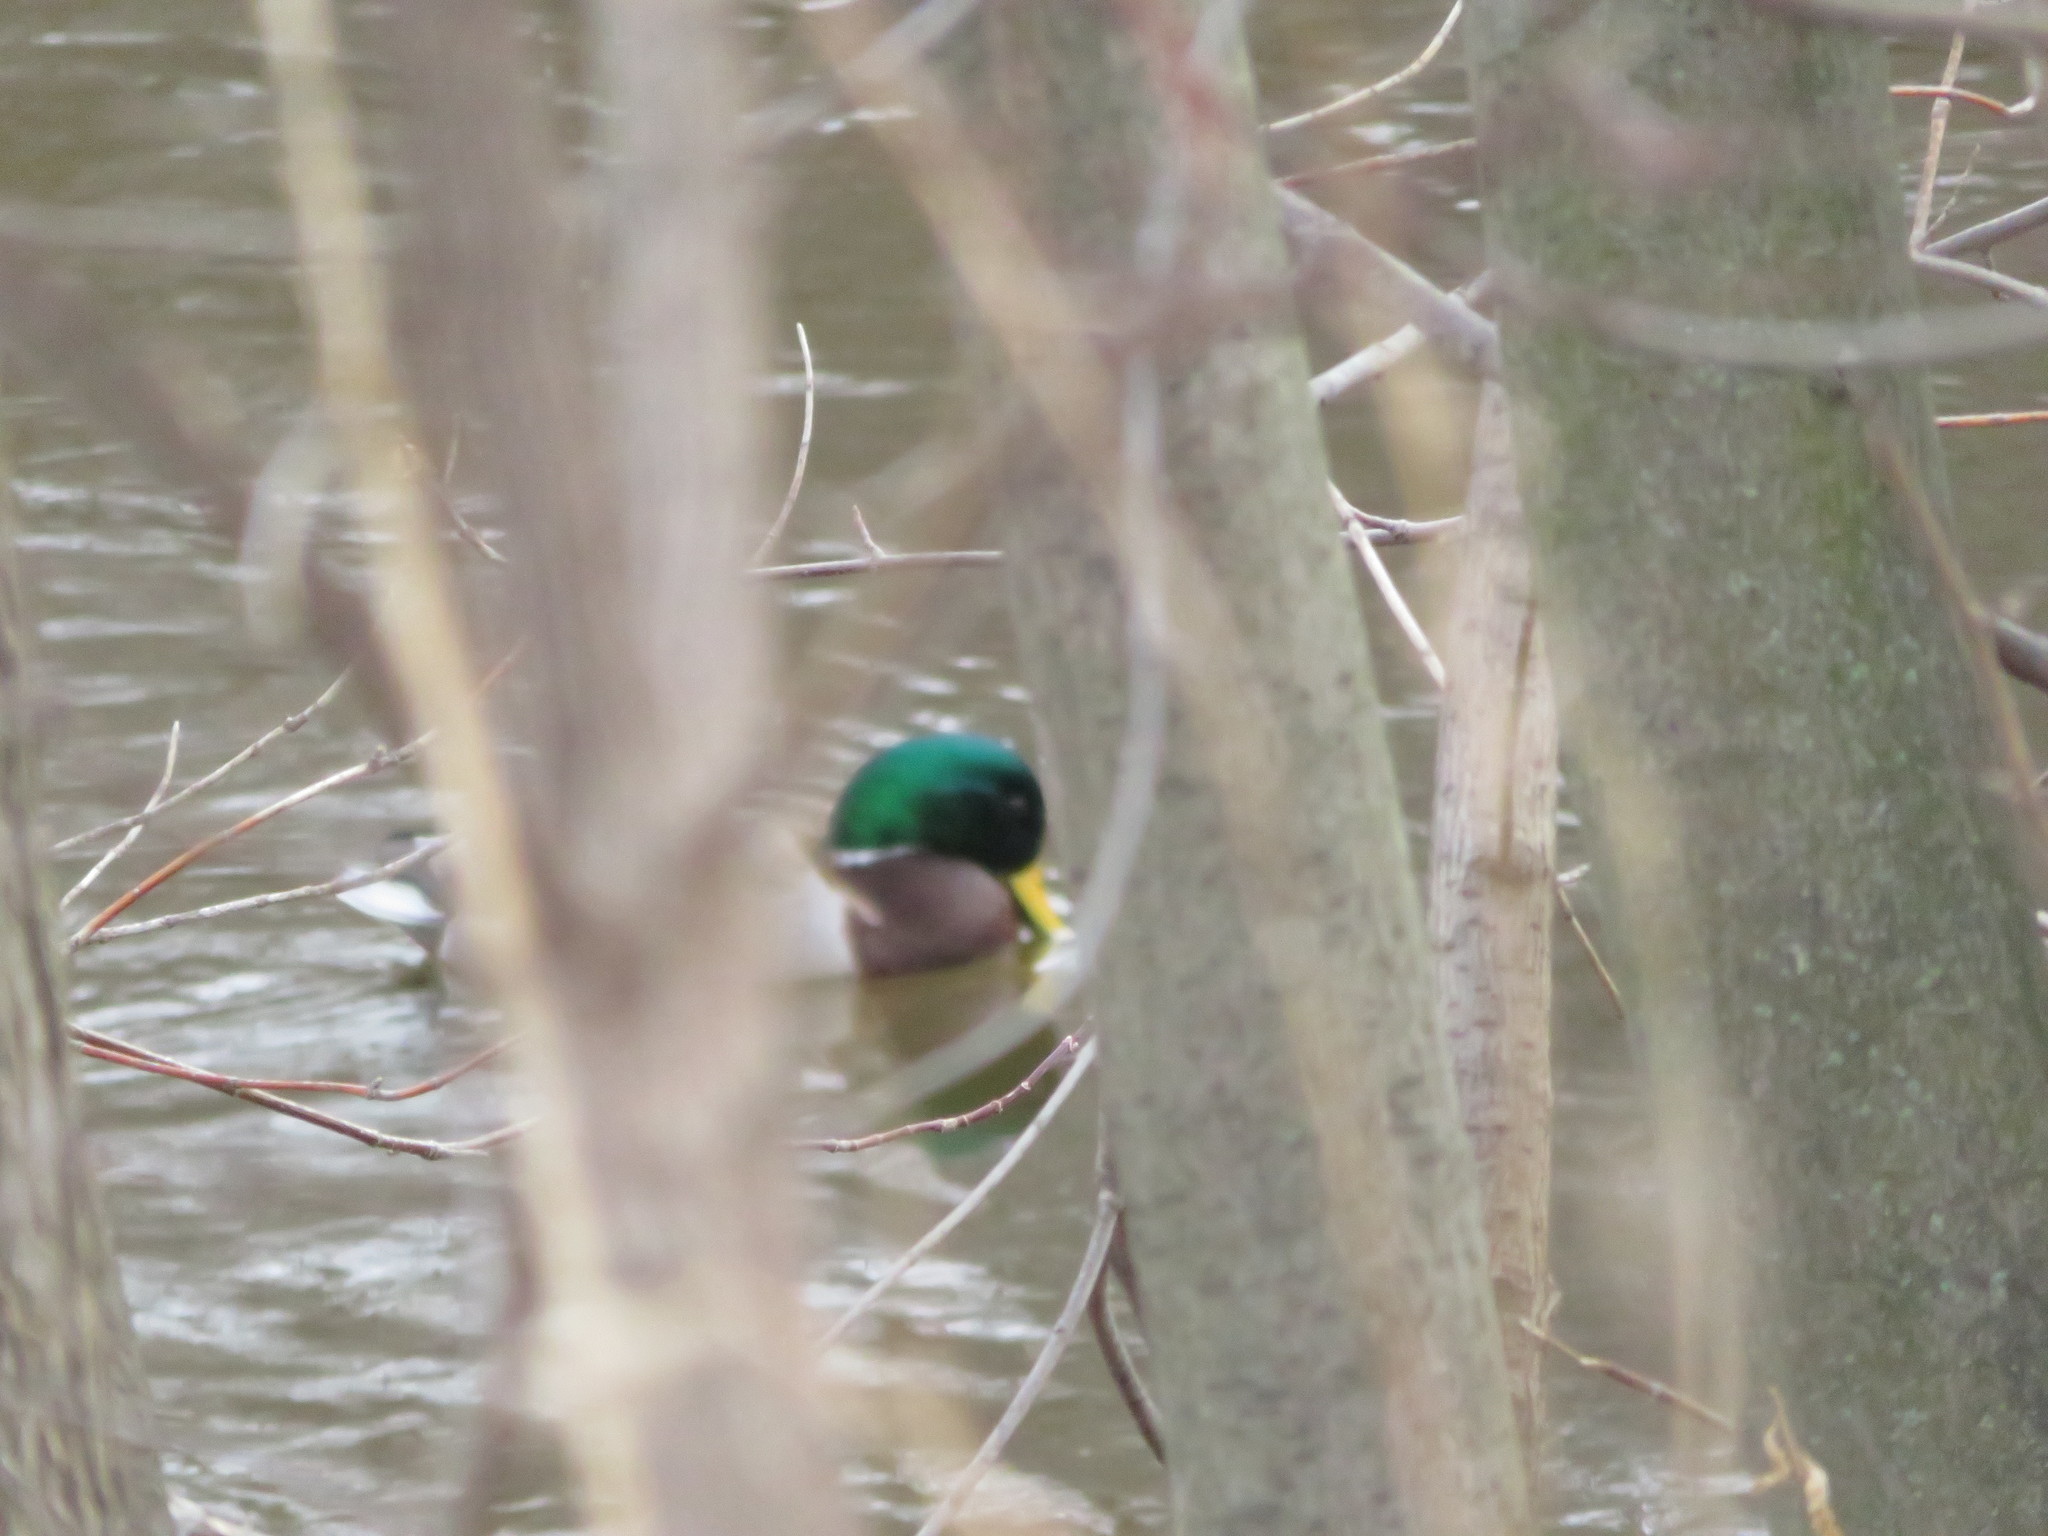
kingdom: Animalia
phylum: Chordata
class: Aves
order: Anseriformes
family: Anatidae
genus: Anas
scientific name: Anas platyrhynchos
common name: Mallard
